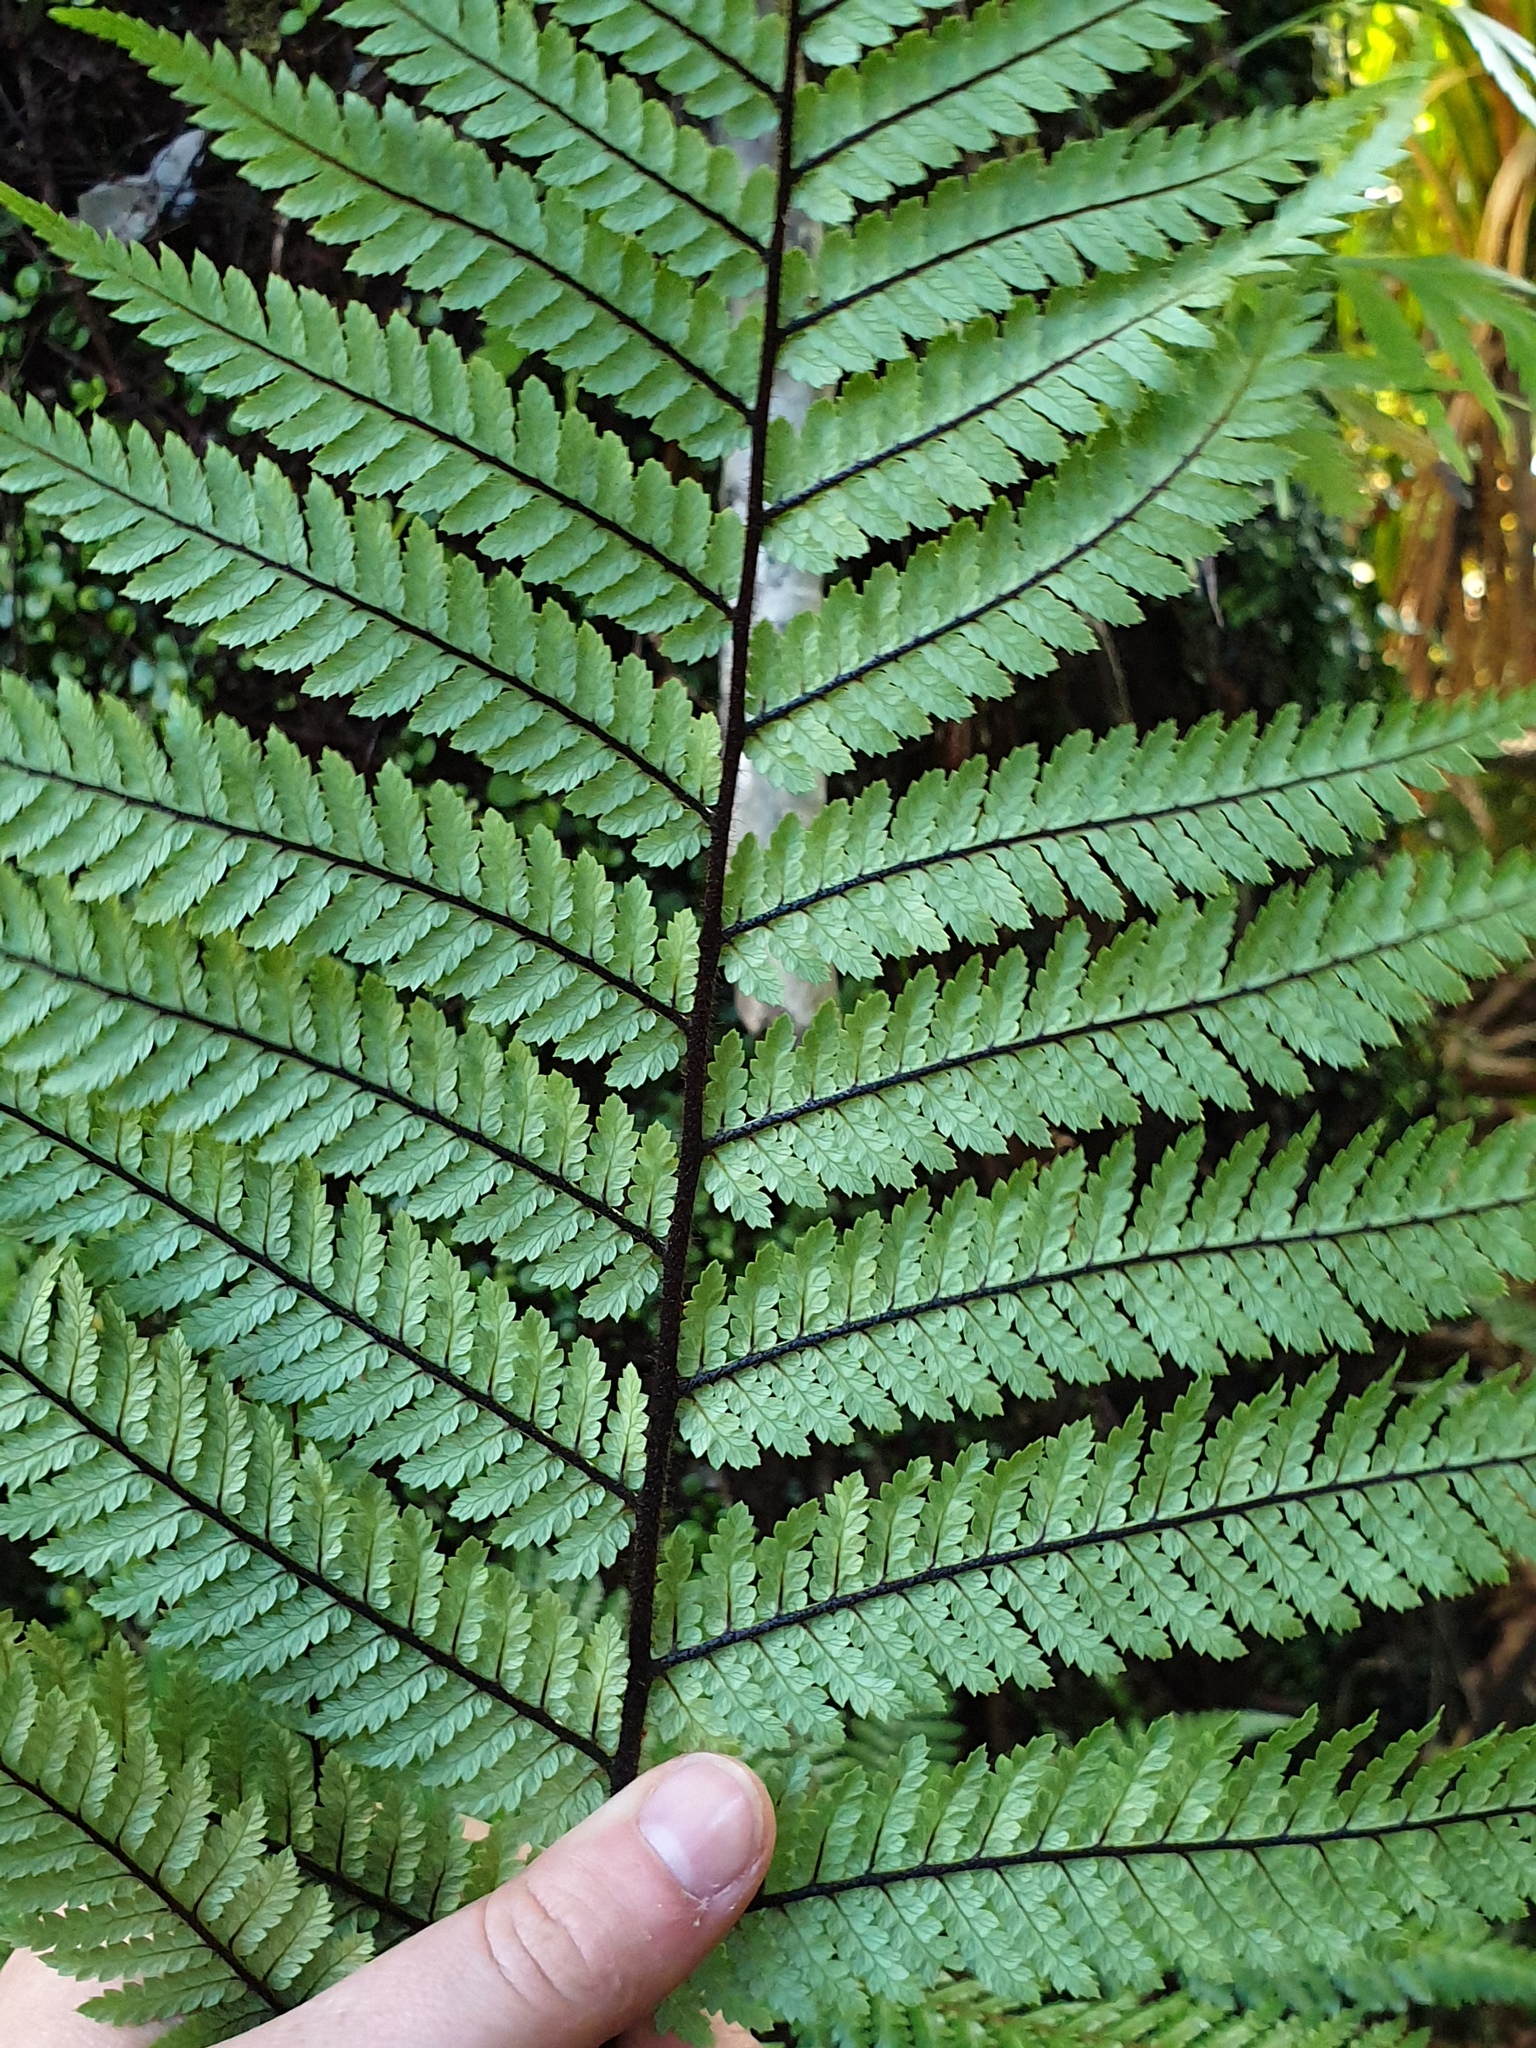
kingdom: Plantae
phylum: Tracheophyta
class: Polypodiopsida
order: Cyatheales
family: Dicksoniaceae
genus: Dicksonia
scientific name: Dicksonia squarrosa
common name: Hard treefern
